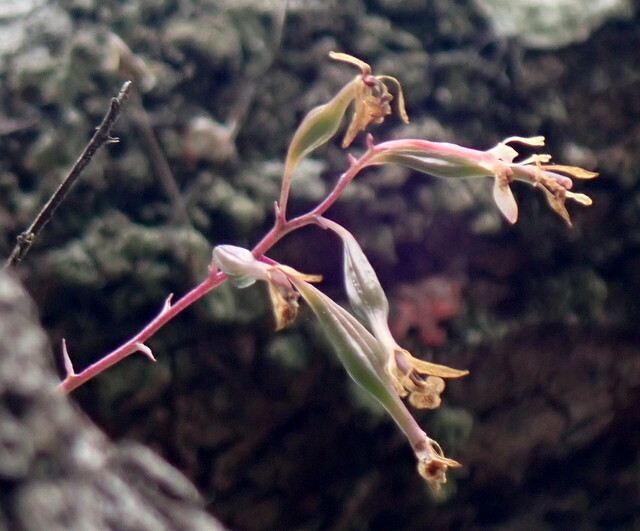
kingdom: Plantae
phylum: Tracheophyta
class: Liliopsida
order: Asparagales
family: Orchidaceae
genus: Epidendrum
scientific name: Epidendrum conopseum
